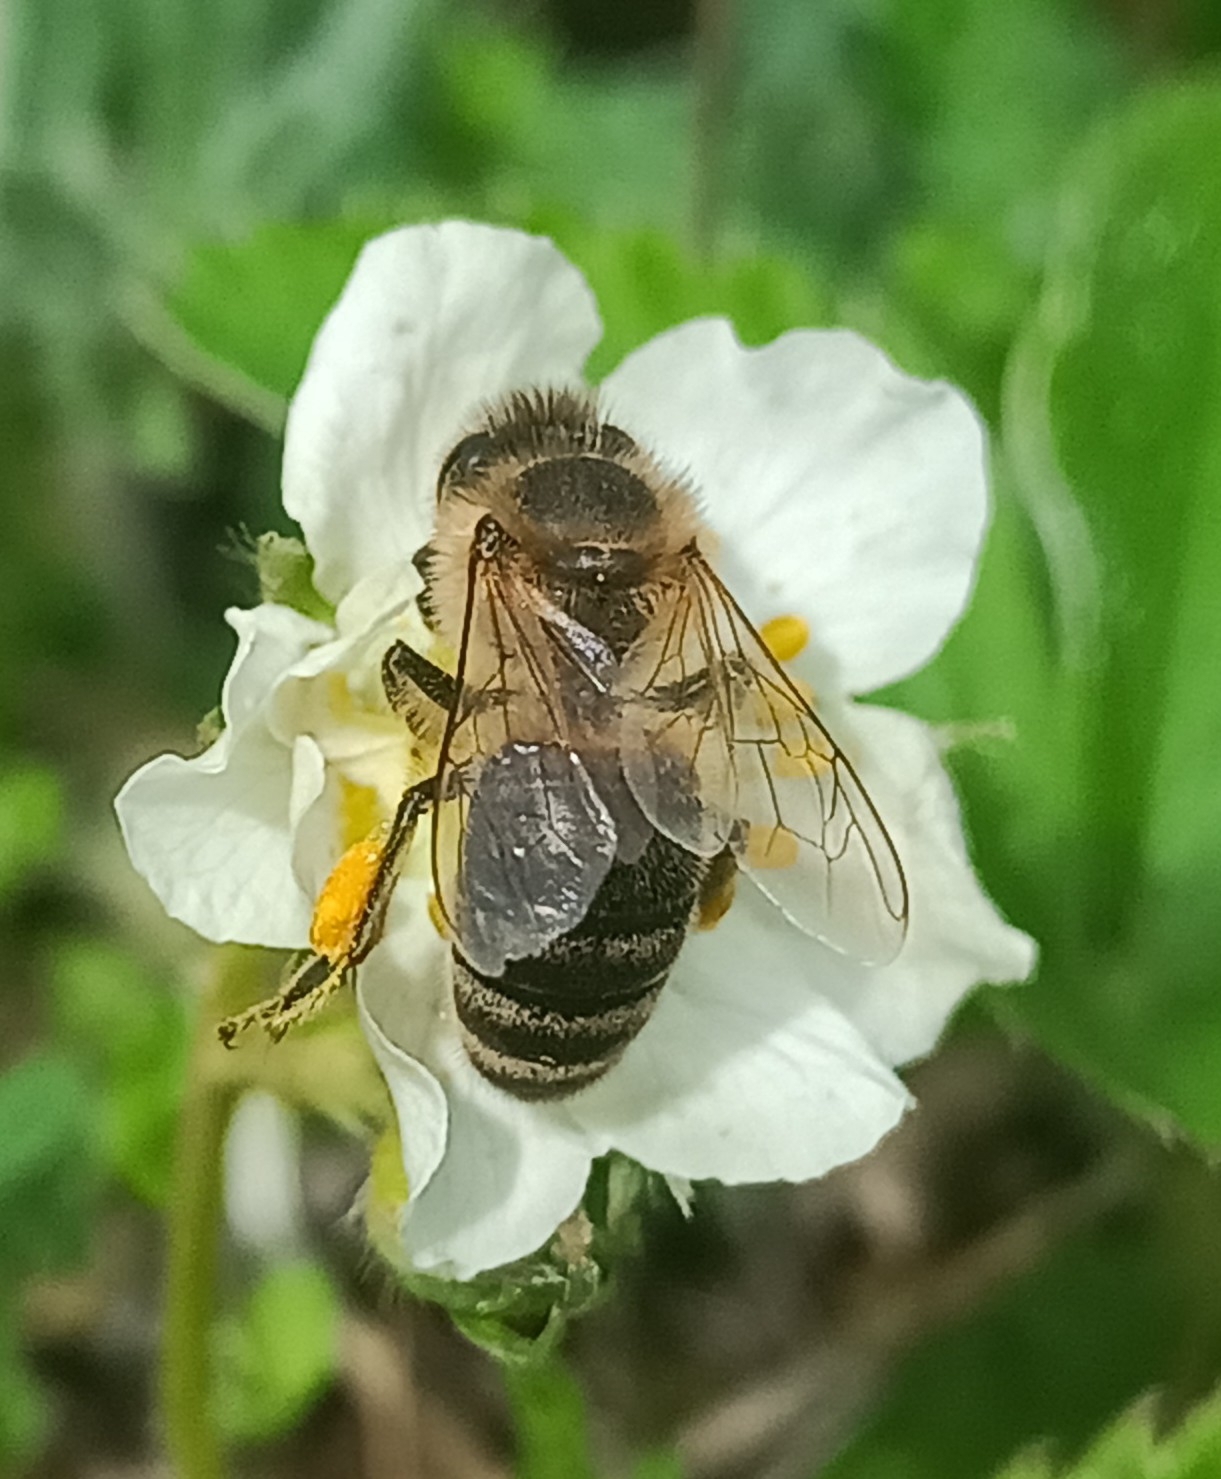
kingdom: Animalia
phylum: Arthropoda
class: Insecta
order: Hymenoptera
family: Apidae
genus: Apis
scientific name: Apis mellifera
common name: Honey bee
